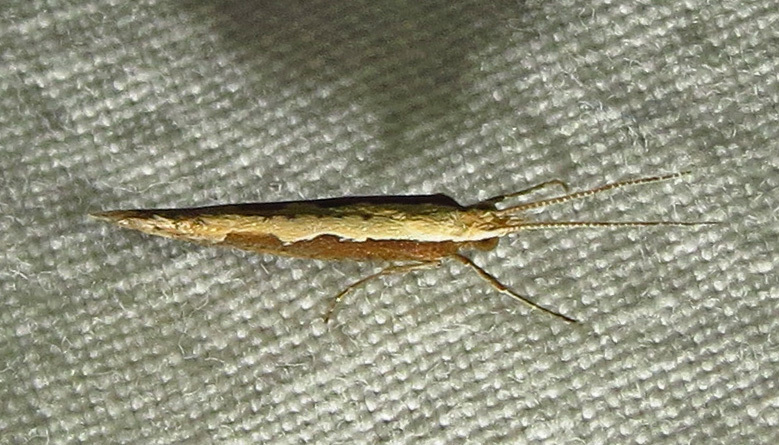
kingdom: Animalia
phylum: Arthropoda
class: Insecta
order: Lepidoptera
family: Plutellidae
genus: Plutella
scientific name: Plutella xylostella
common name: Diamond-back moth
